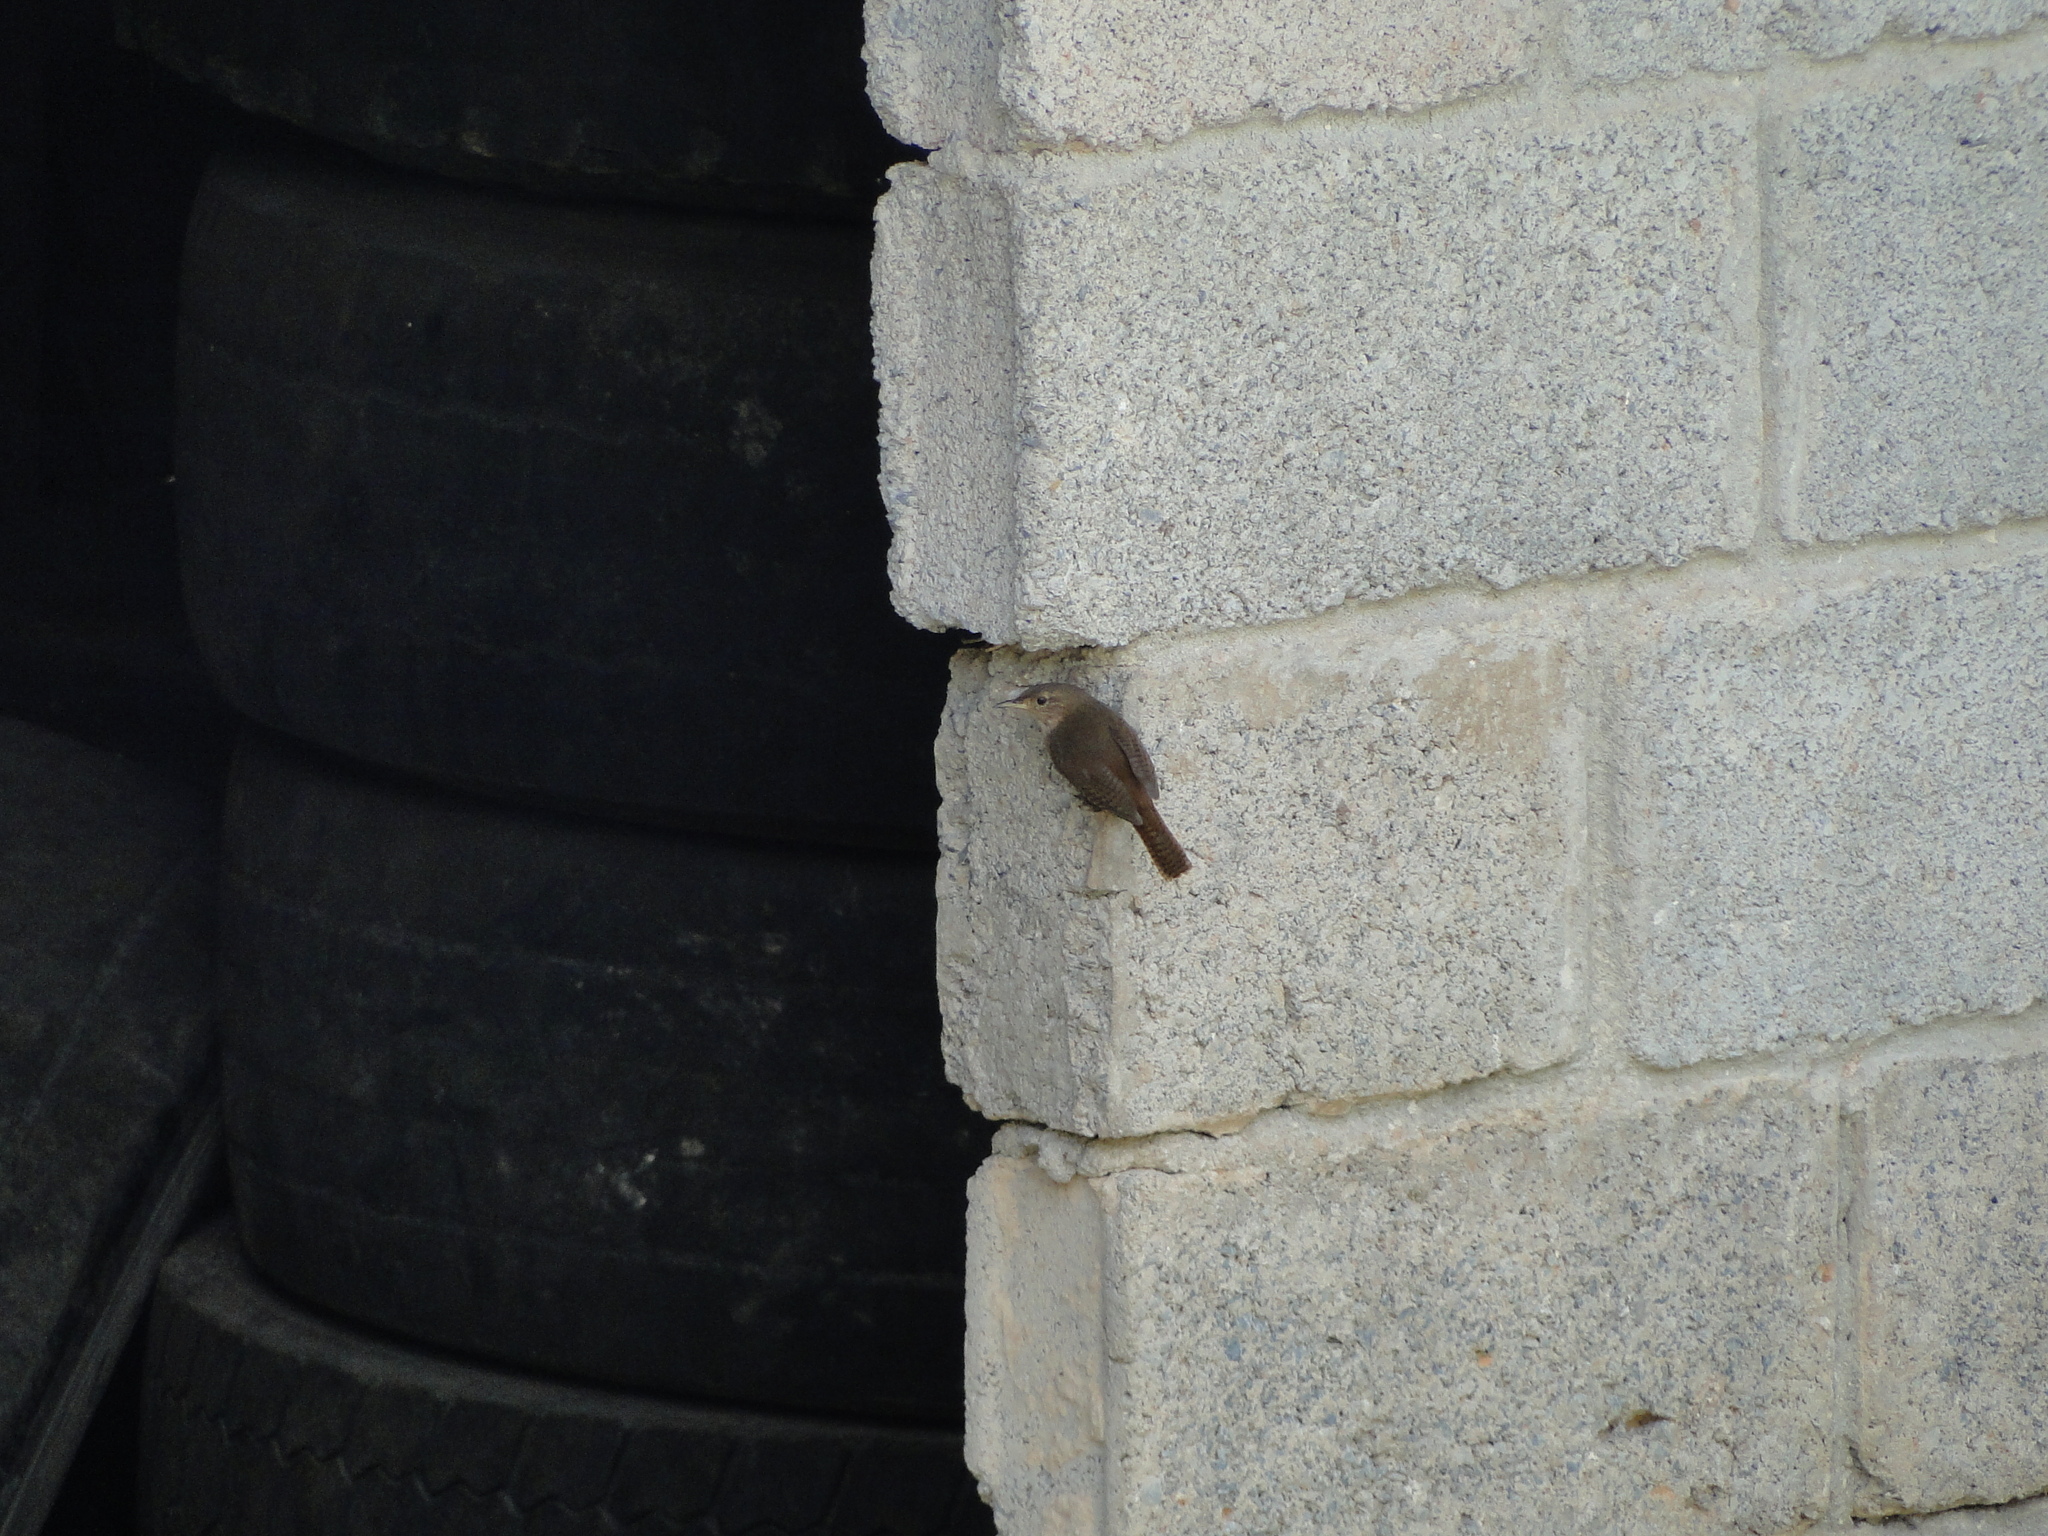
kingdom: Animalia
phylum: Chordata
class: Aves
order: Passeriformes
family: Troglodytidae
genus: Troglodytes
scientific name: Troglodytes aedon
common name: House wren
